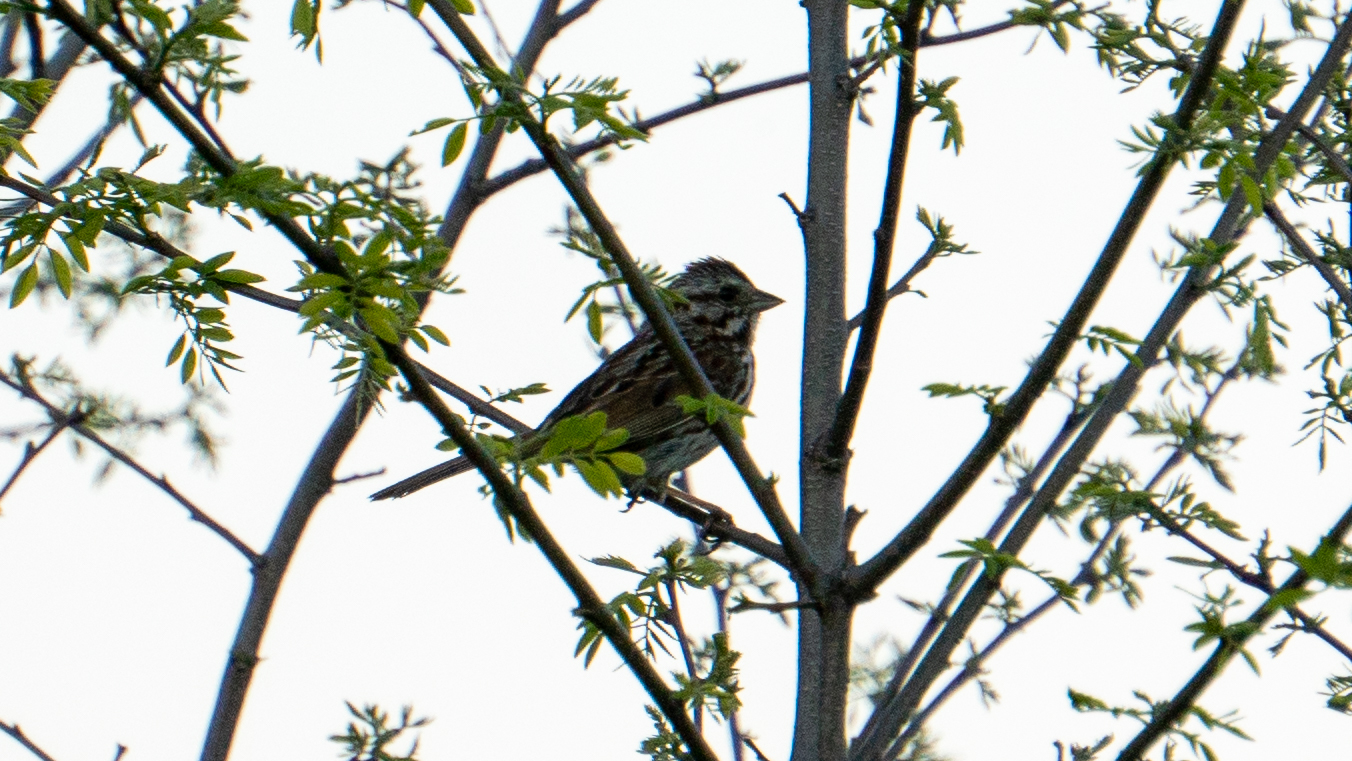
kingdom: Animalia
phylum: Chordata
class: Aves
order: Passeriformes
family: Passerellidae
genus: Melospiza
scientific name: Melospiza melodia
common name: Song sparrow
